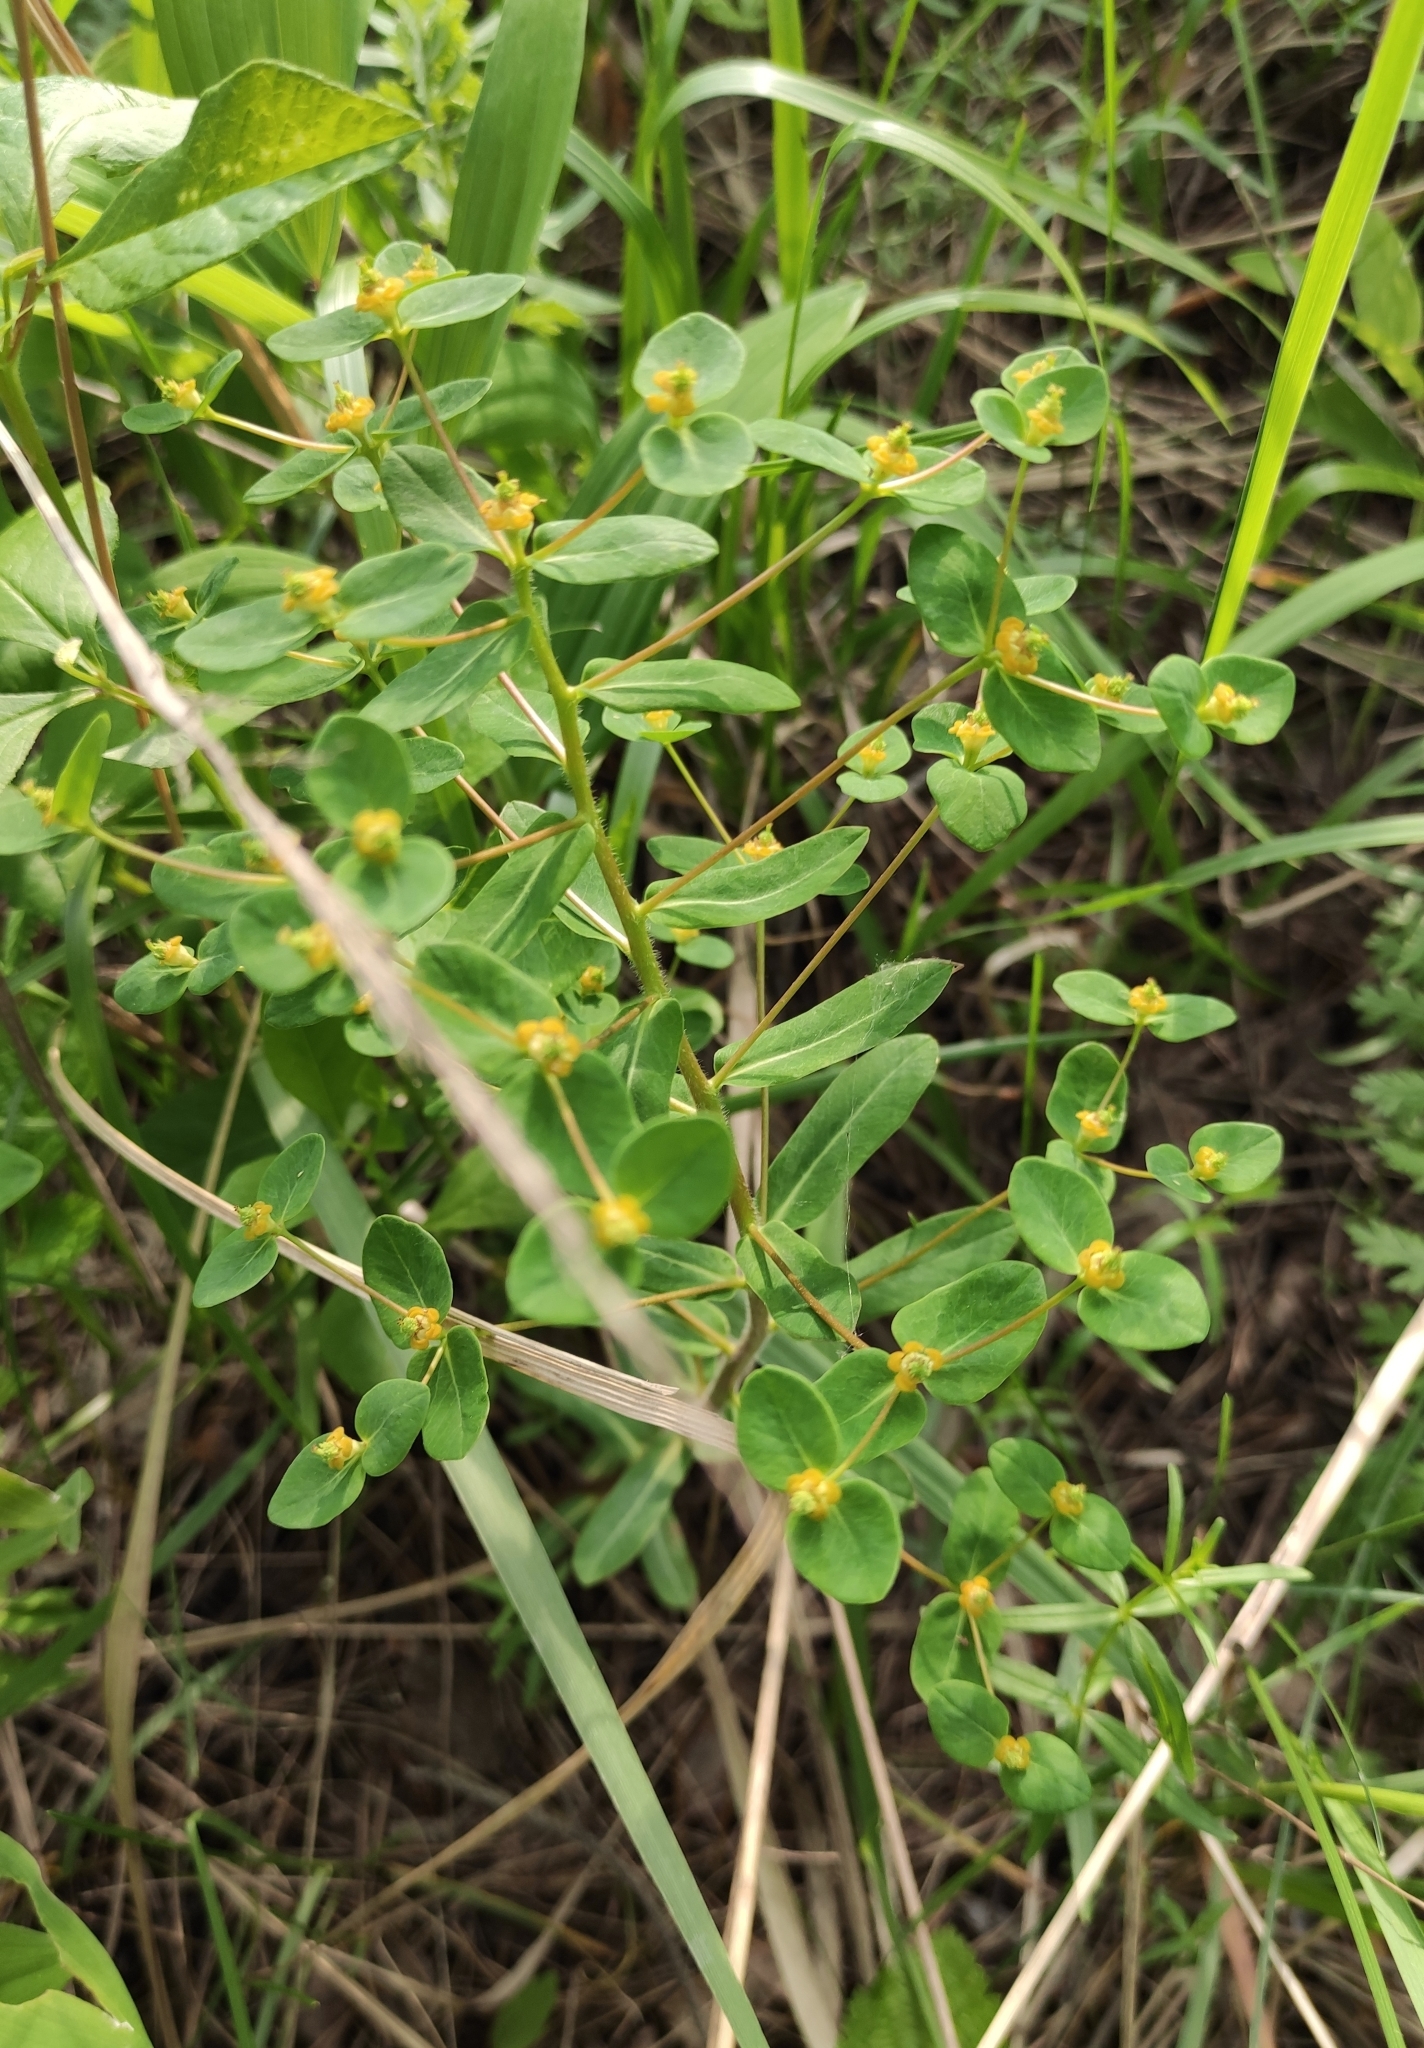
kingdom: Plantae
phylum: Tracheophyta
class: Magnoliopsida
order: Malpighiales
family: Euphorbiaceae
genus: Euphorbia
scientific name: Euphorbia jenisseiensis
